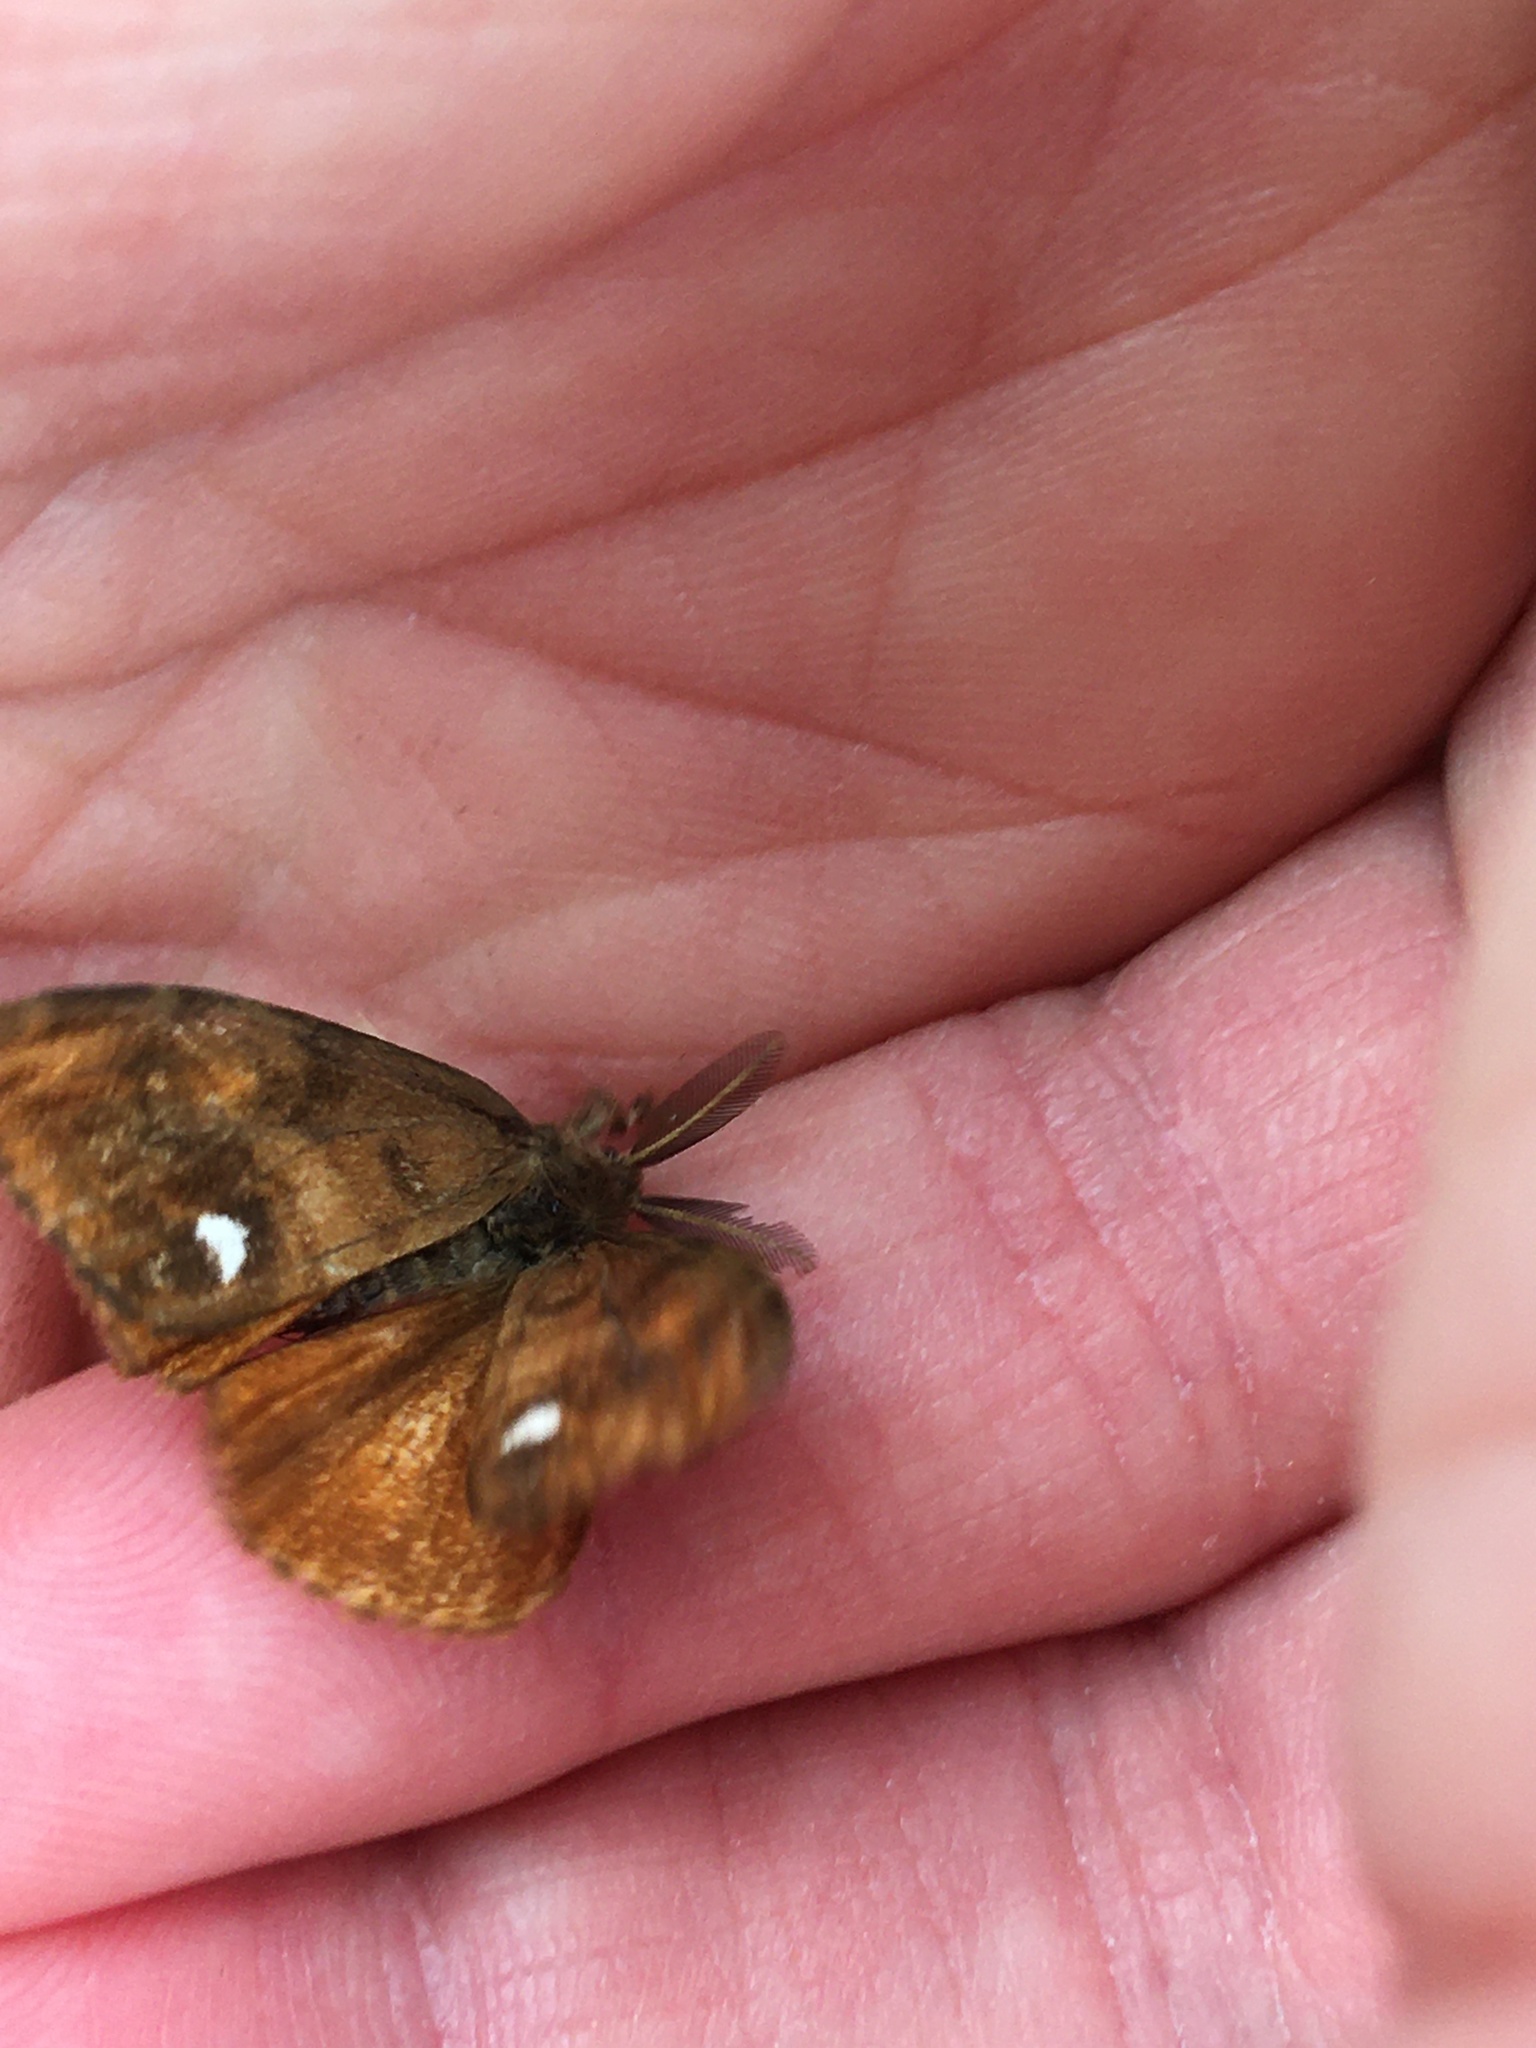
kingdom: Animalia
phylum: Arthropoda
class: Insecta
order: Lepidoptera
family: Erebidae
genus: Orgyia
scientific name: Orgyia antiqua
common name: Vapourer
